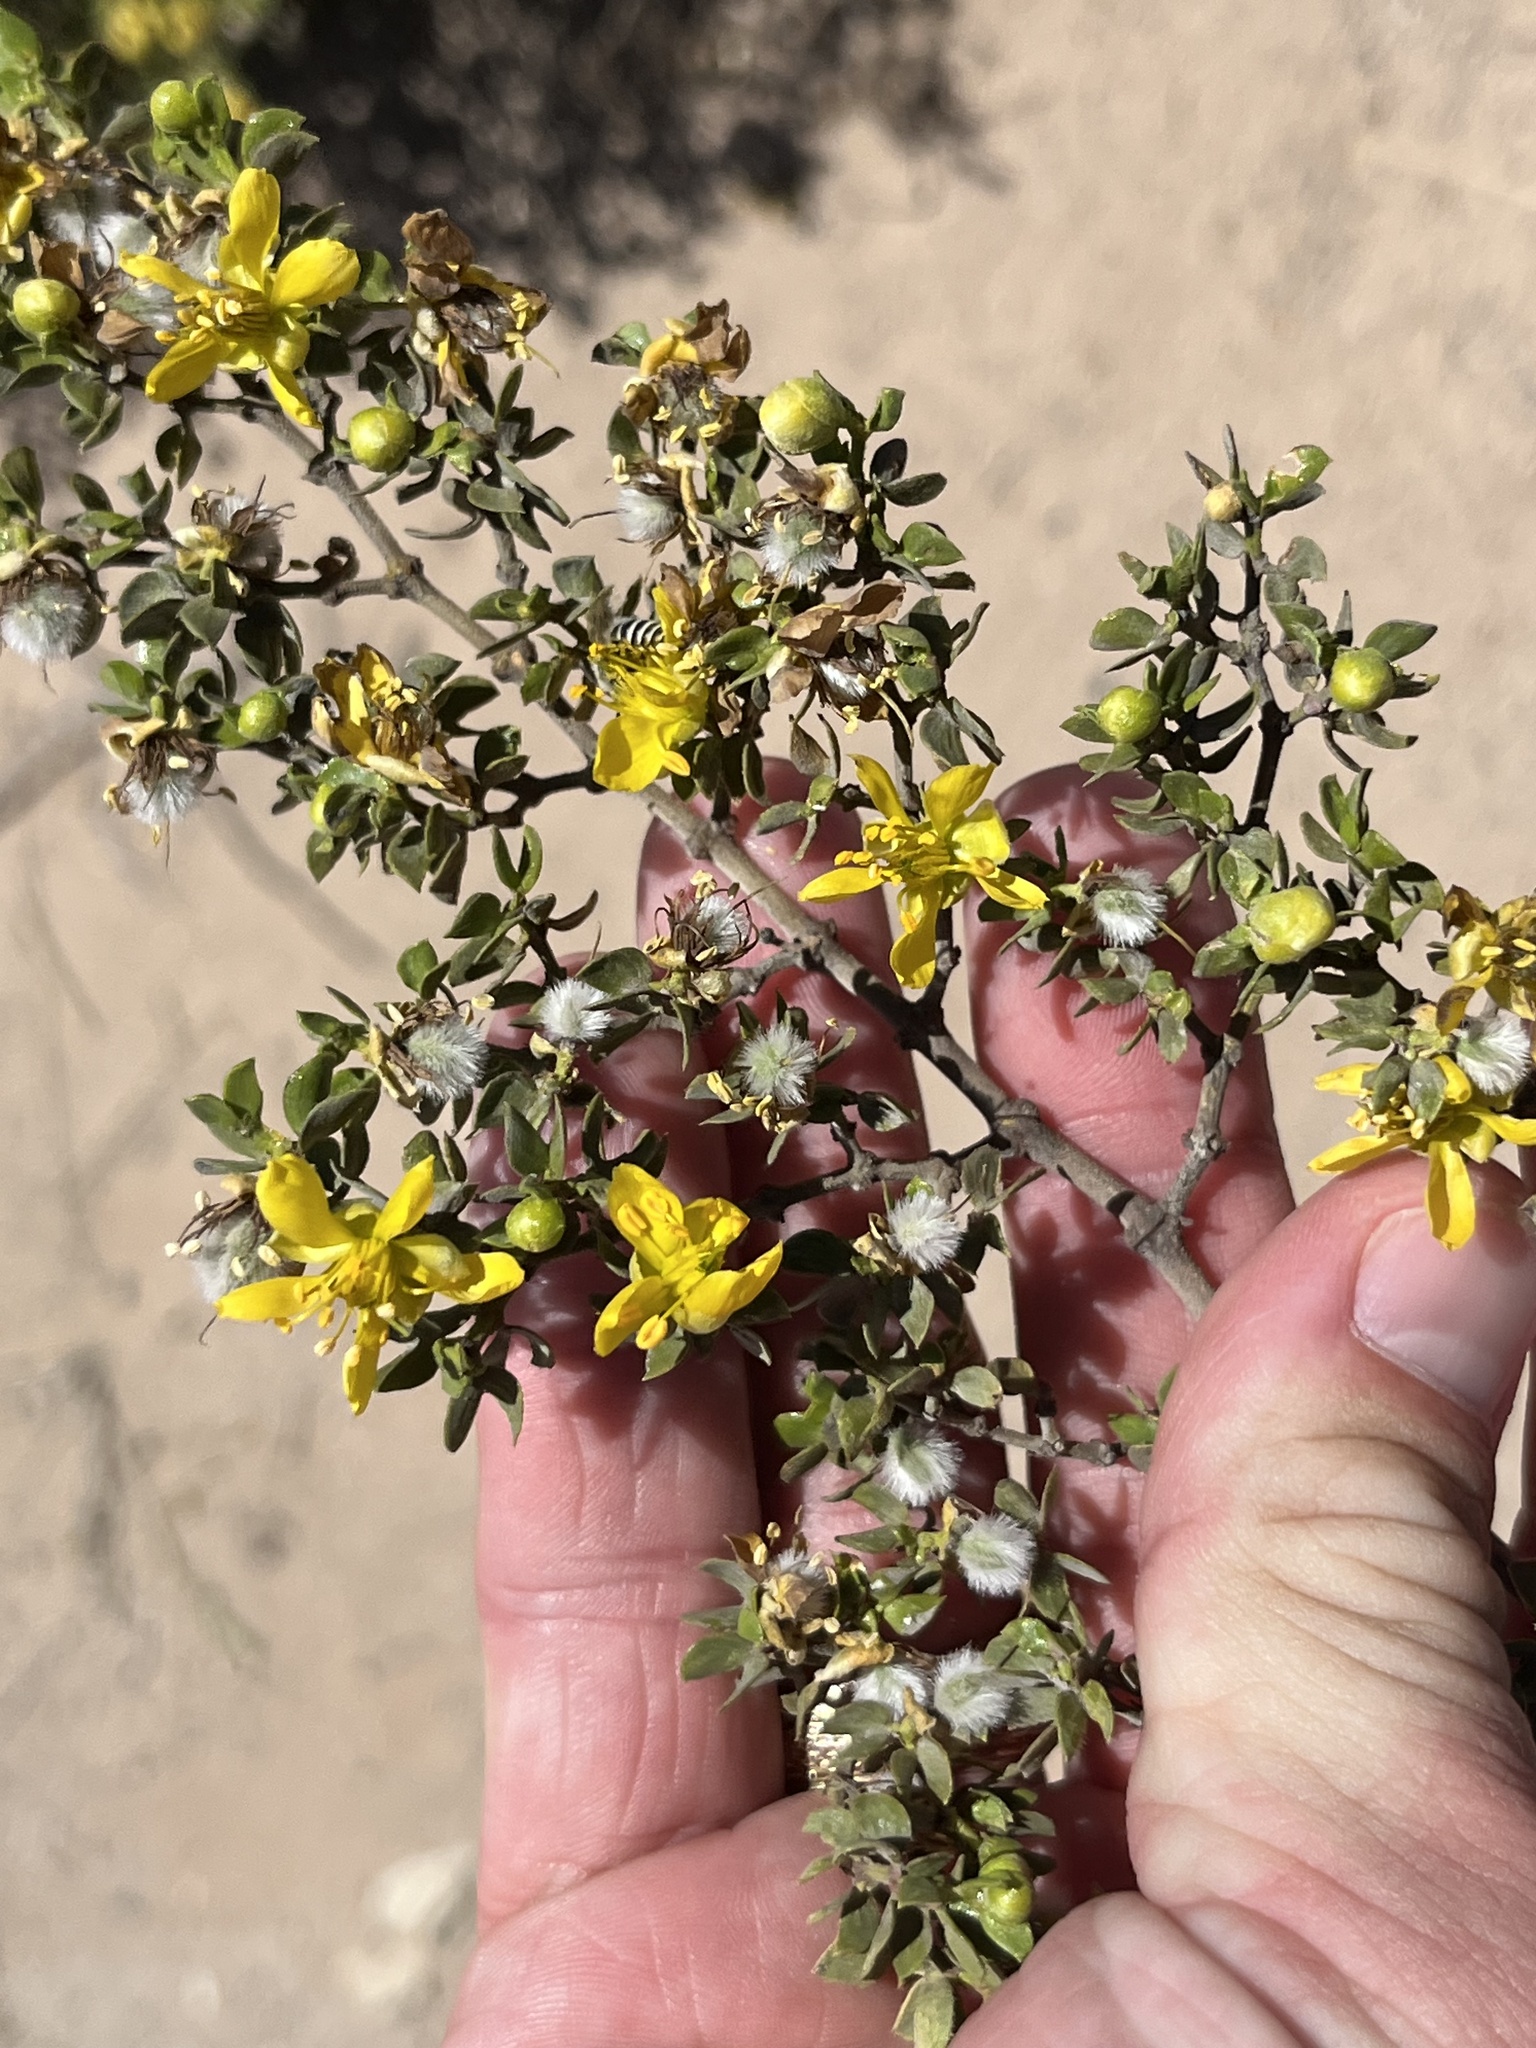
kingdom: Plantae
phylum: Tracheophyta
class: Magnoliopsida
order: Zygophyllales
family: Zygophyllaceae
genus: Larrea
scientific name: Larrea tridentata
